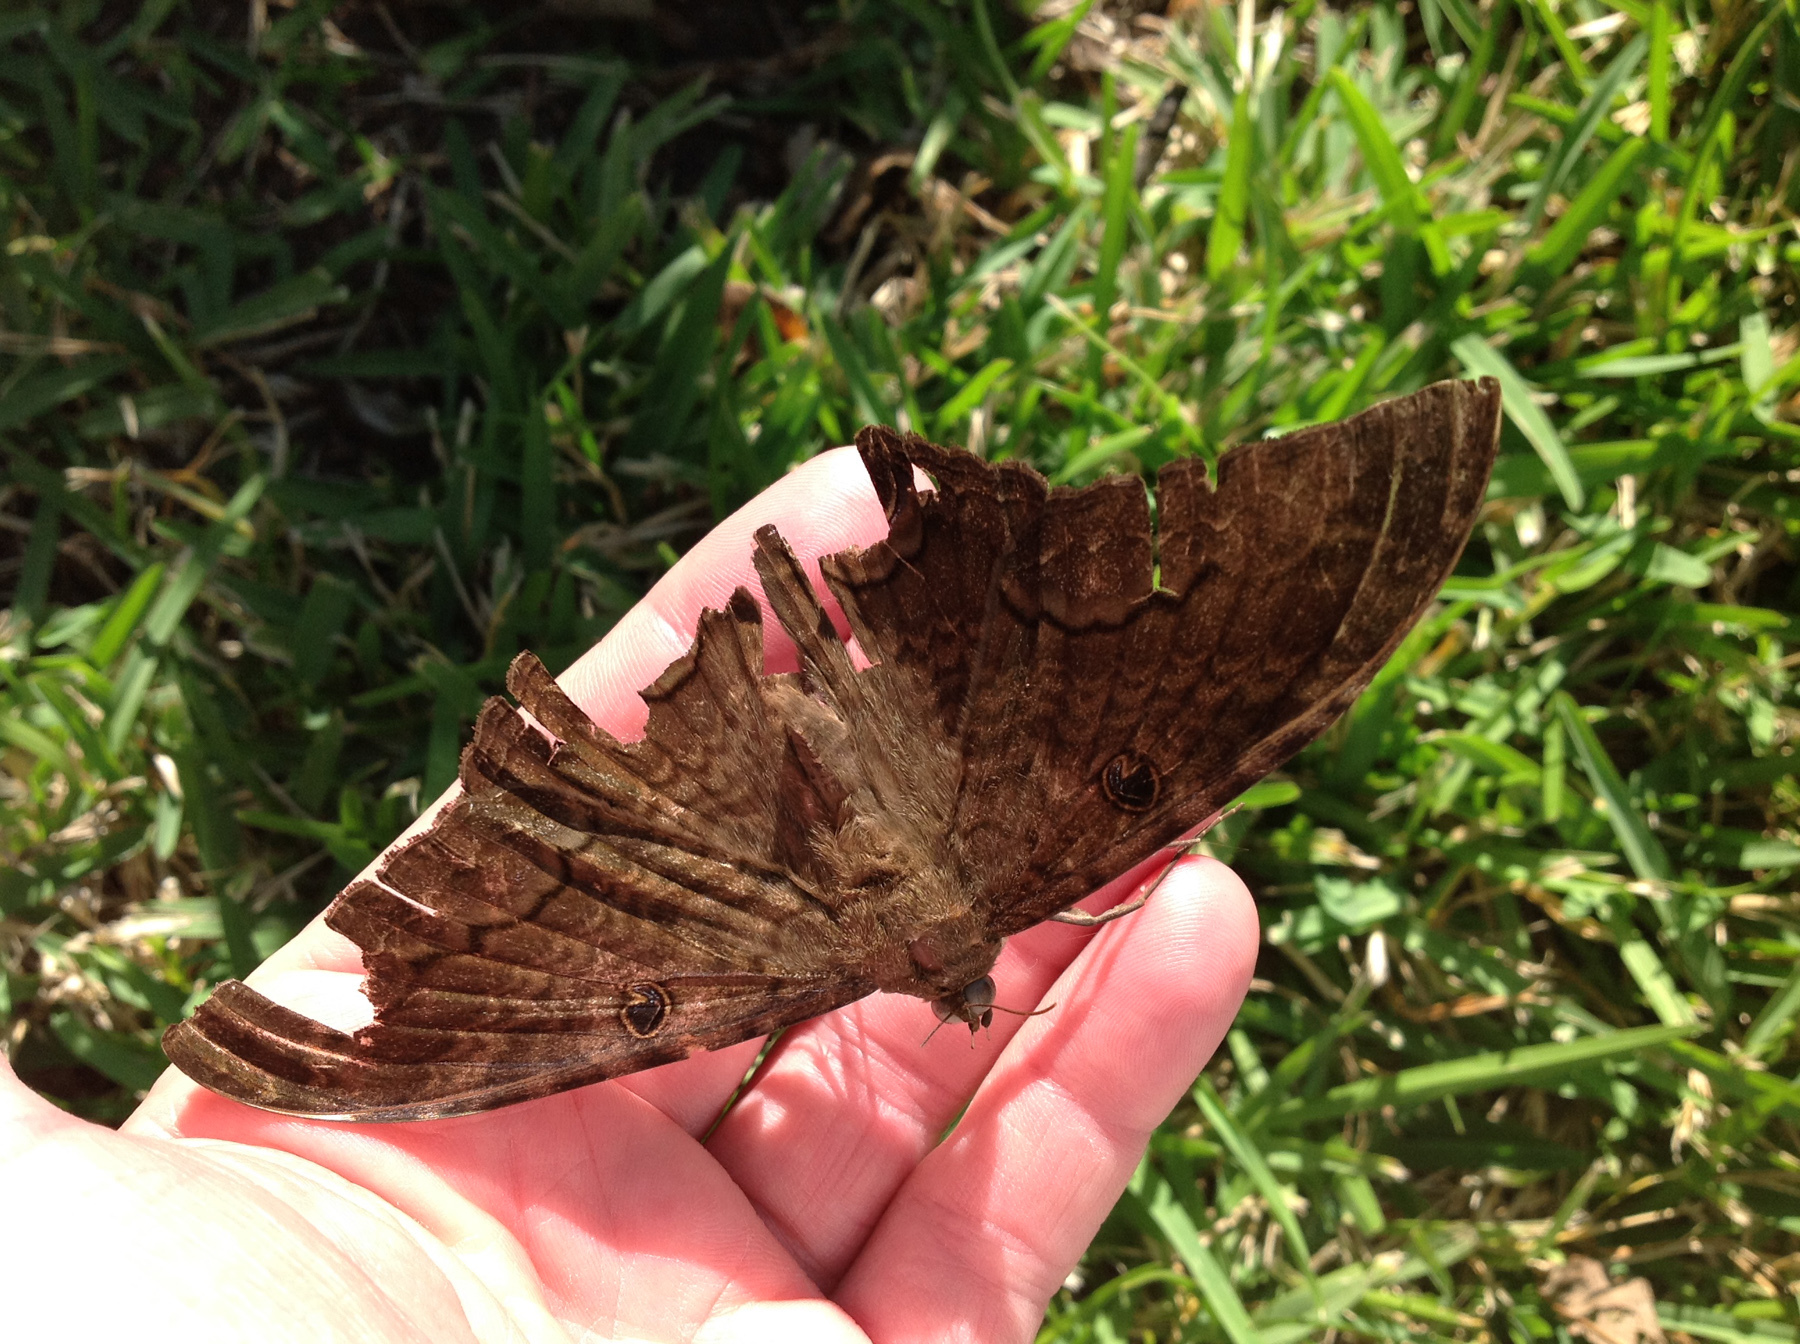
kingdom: Animalia
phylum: Arthropoda
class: Insecta
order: Lepidoptera
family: Erebidae
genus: Ascalapha
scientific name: Ascalapha odorata
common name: Black witch
